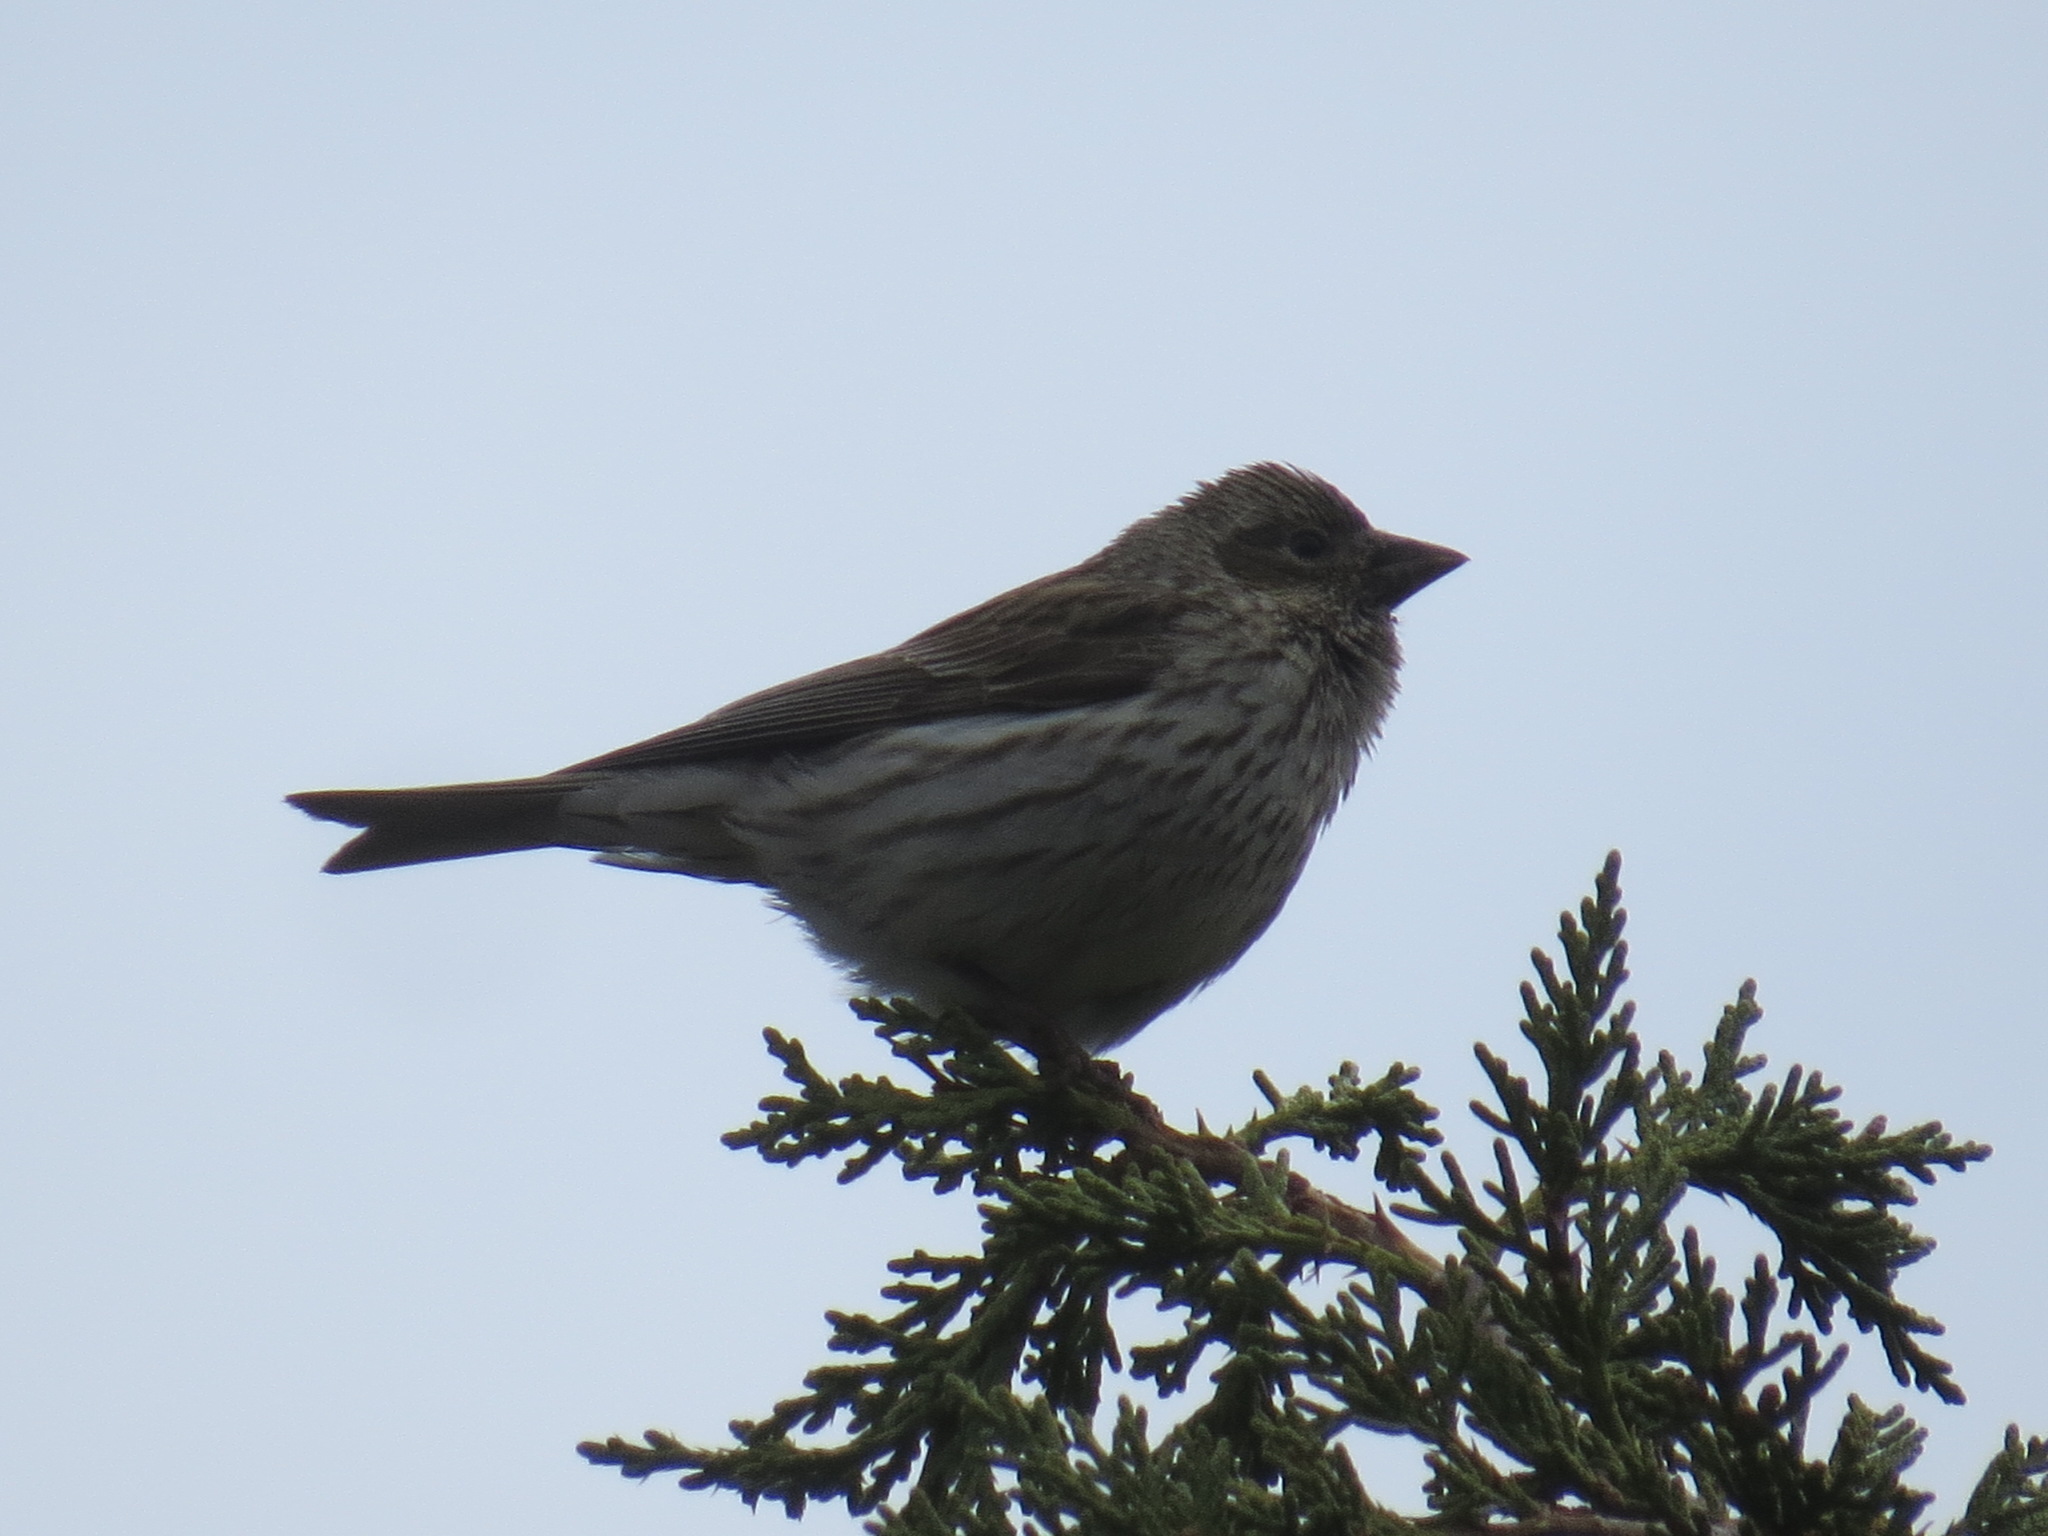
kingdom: Animalia
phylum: Chordata
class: Aves
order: Passeriformes
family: Fringillidae
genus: Haemorhous
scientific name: Haemorhous cassinii
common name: Cassin's finch
